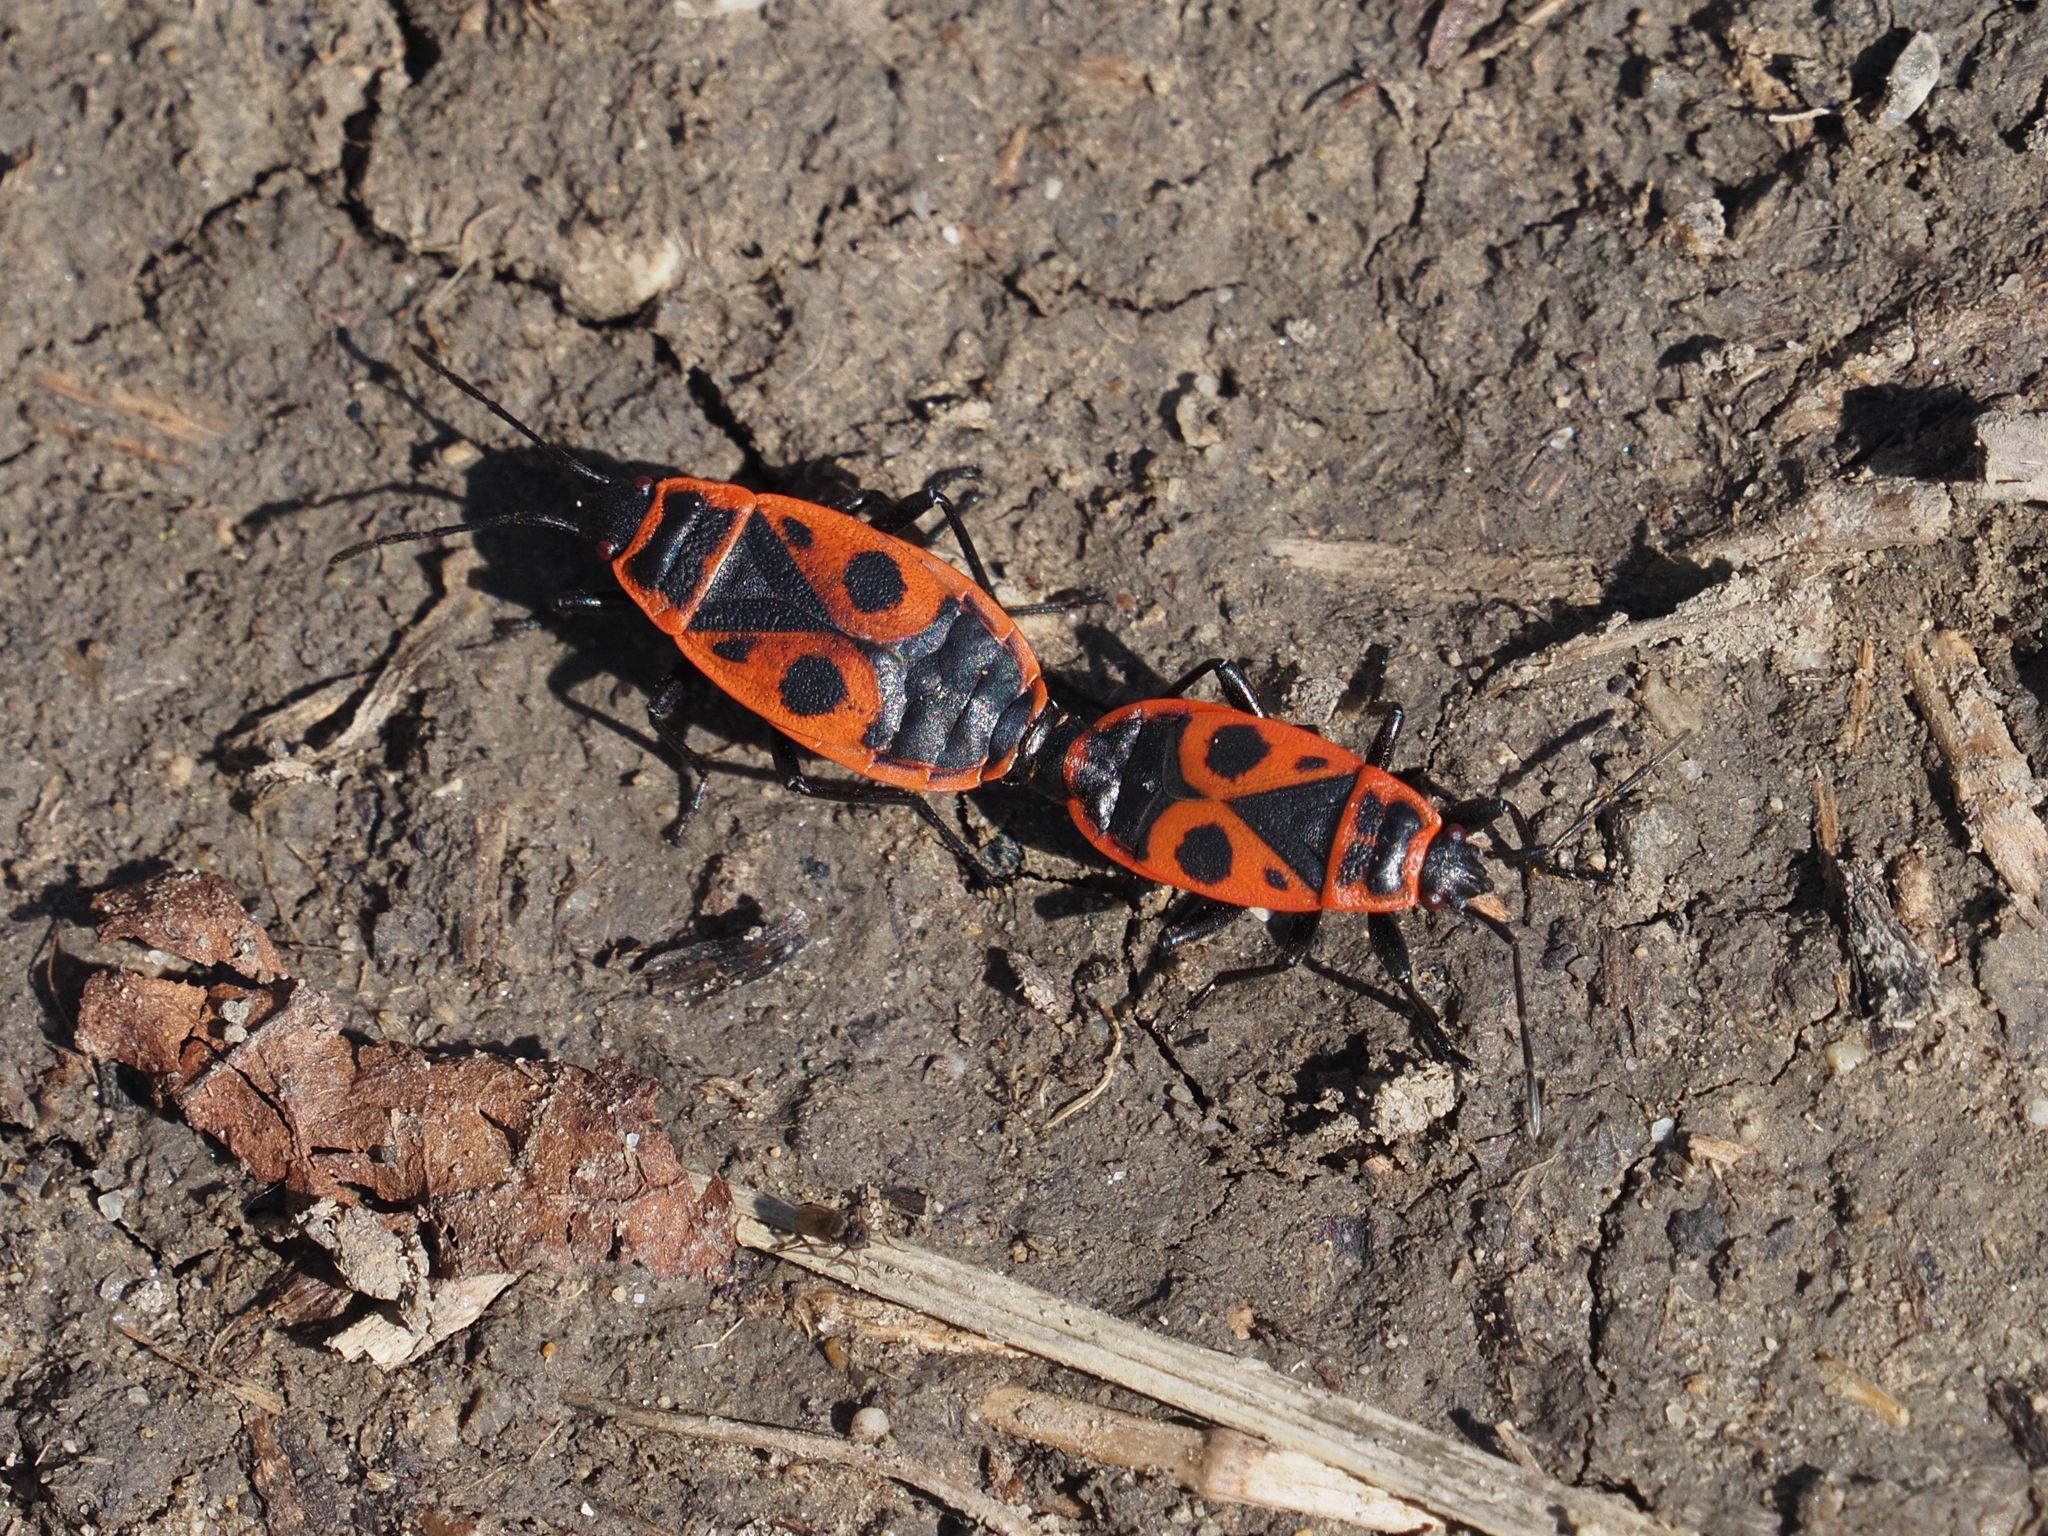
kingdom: Animalia
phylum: Arthropoda
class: Insecta
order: Hemiptera
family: Pyrrhocoridae
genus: Pyrrhocoris
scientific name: Pyrrhocoris apterus
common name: Firebug
